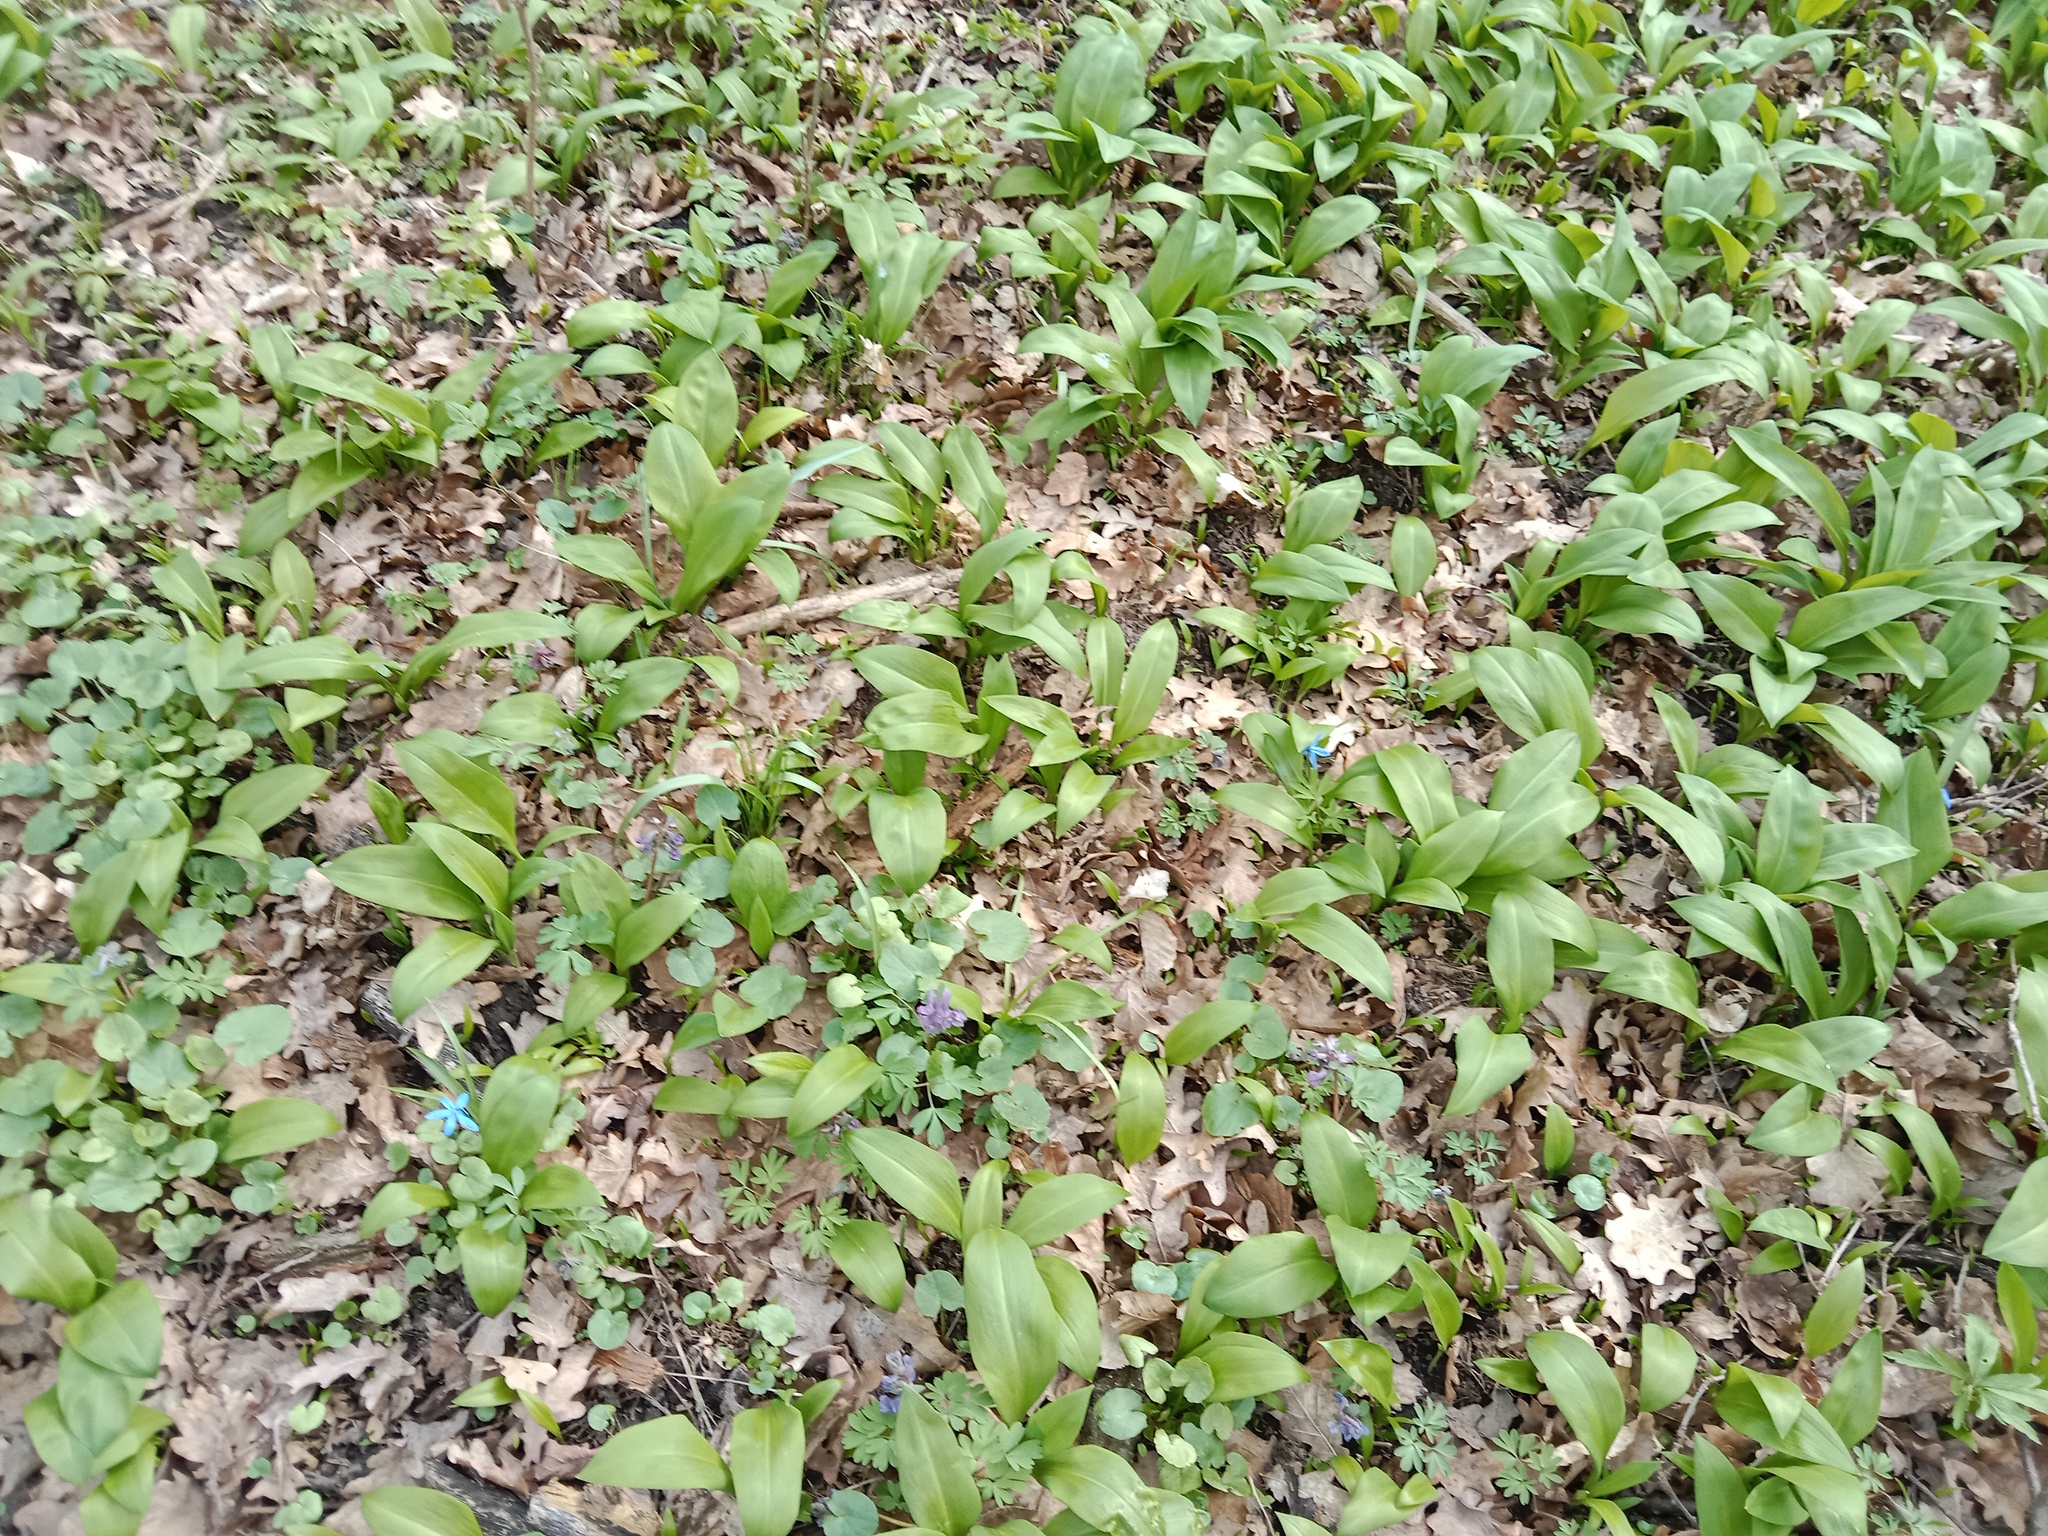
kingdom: Plantae
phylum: Tracheophyta
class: Liliopsida
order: Asparagales
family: Amaryllidaceae
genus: Allium
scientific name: Allium ursinum
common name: Ramsons
